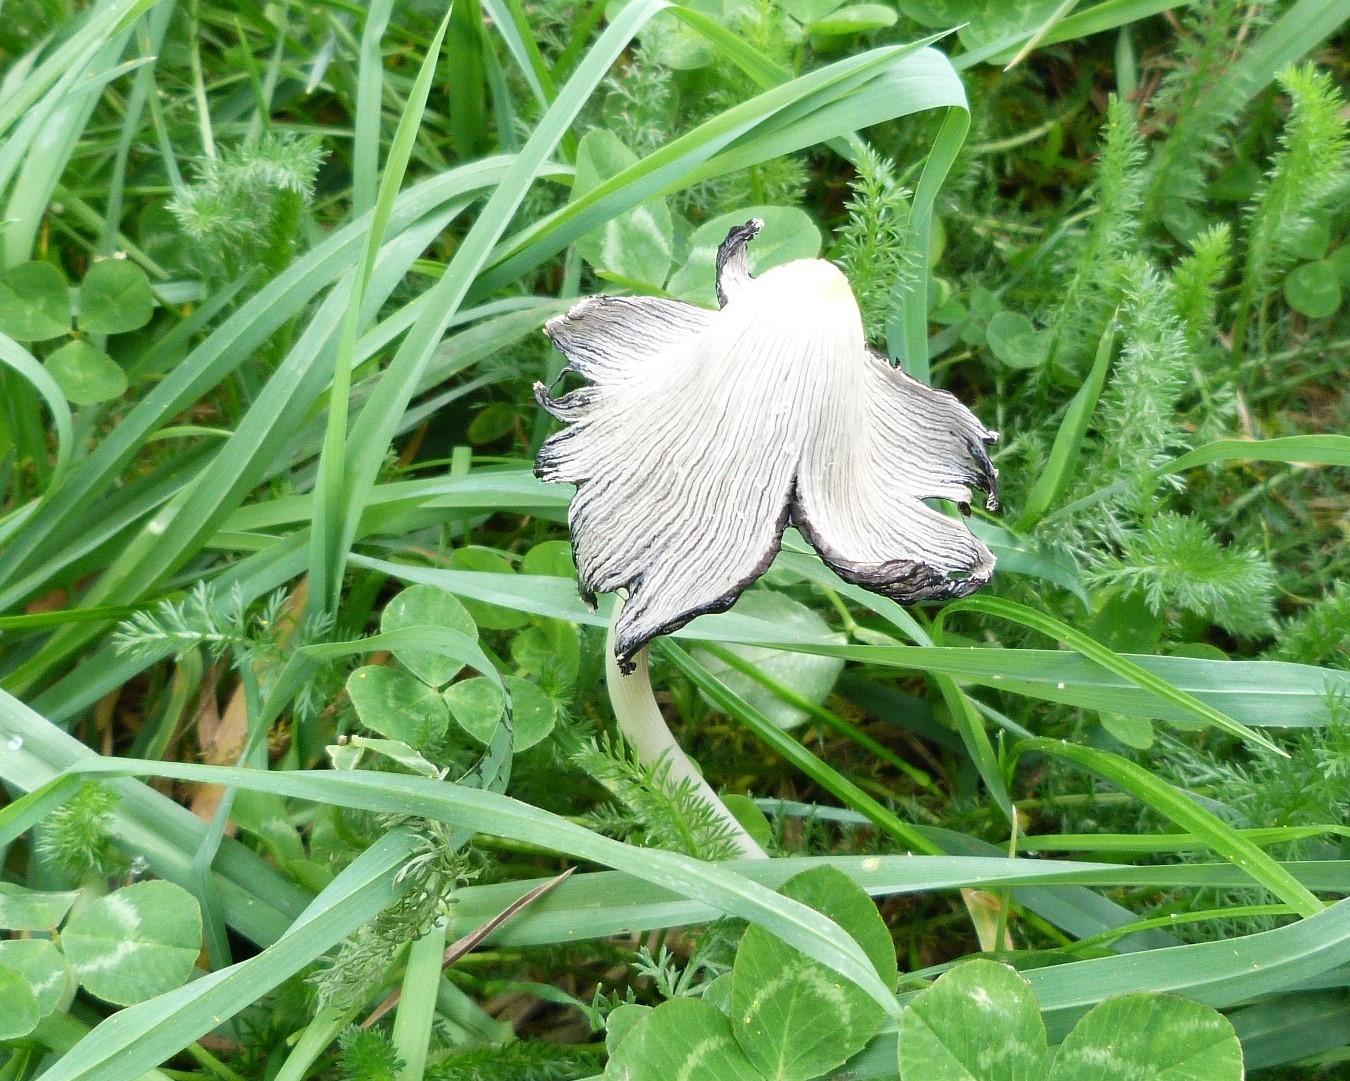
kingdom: Fungi
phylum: Basidiomycota
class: Agaricomycetes
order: Agaricales
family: Psathyrellaceae
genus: Coprinopsis
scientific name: Coprinopsis lagopus
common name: Hare'sfoot inkcap
